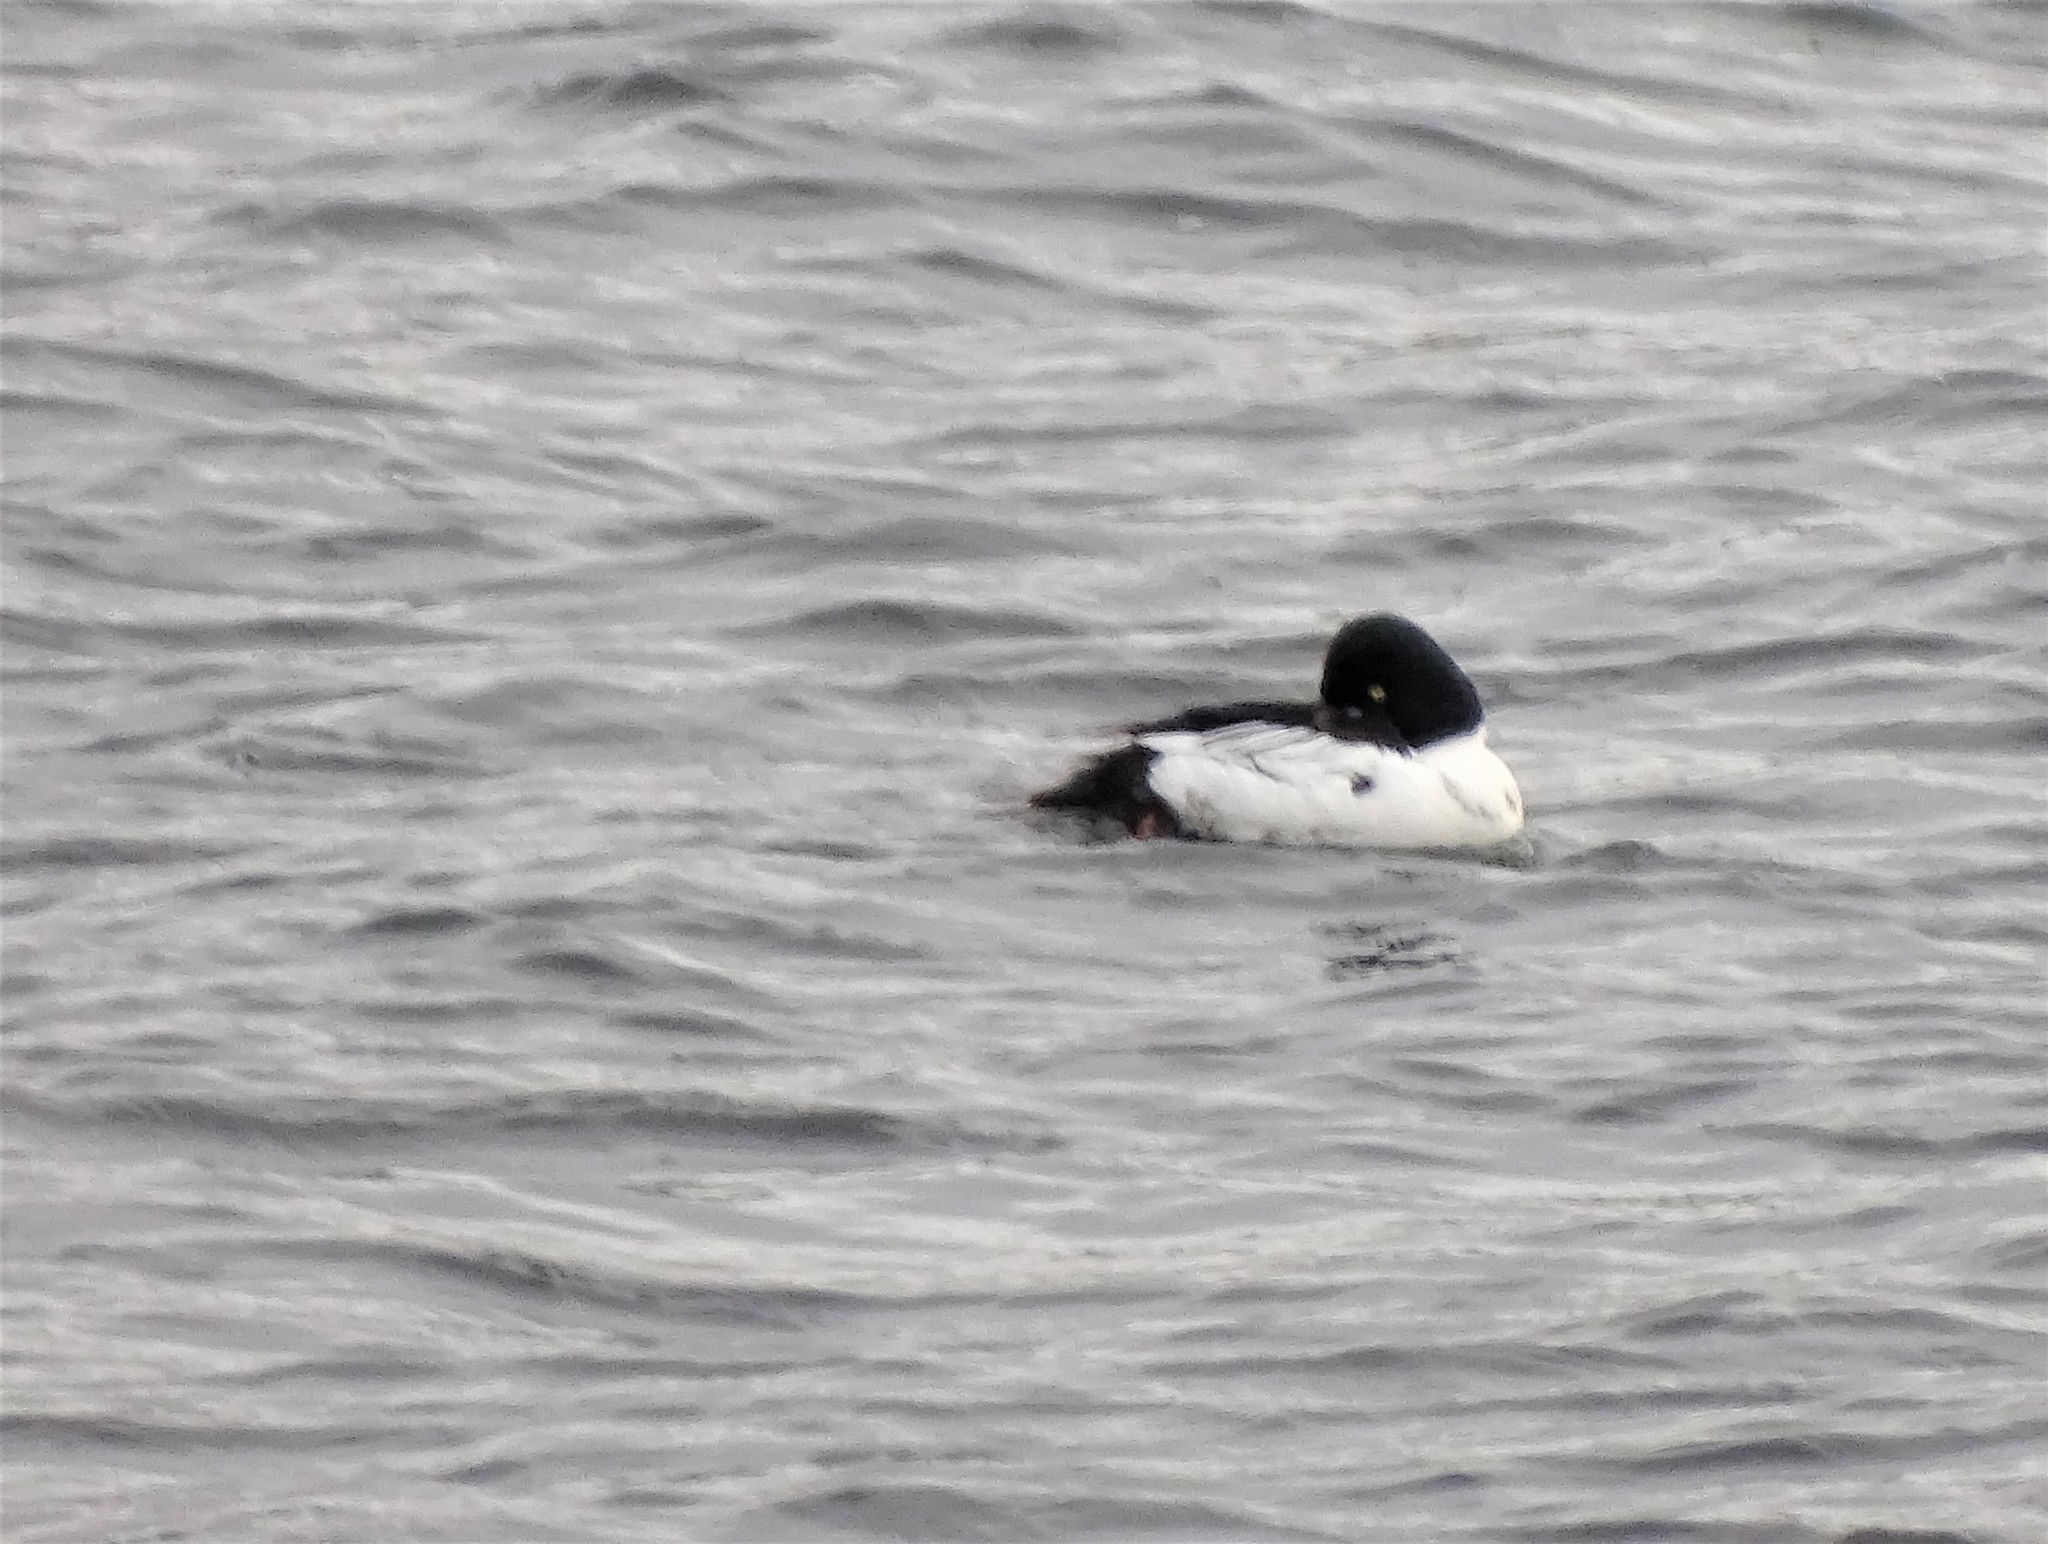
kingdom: Animalia
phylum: Chordata
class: Aves
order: Anseriformes
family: Anatidae
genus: Bucephala
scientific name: Bucephala clangula
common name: Common goldeneye
